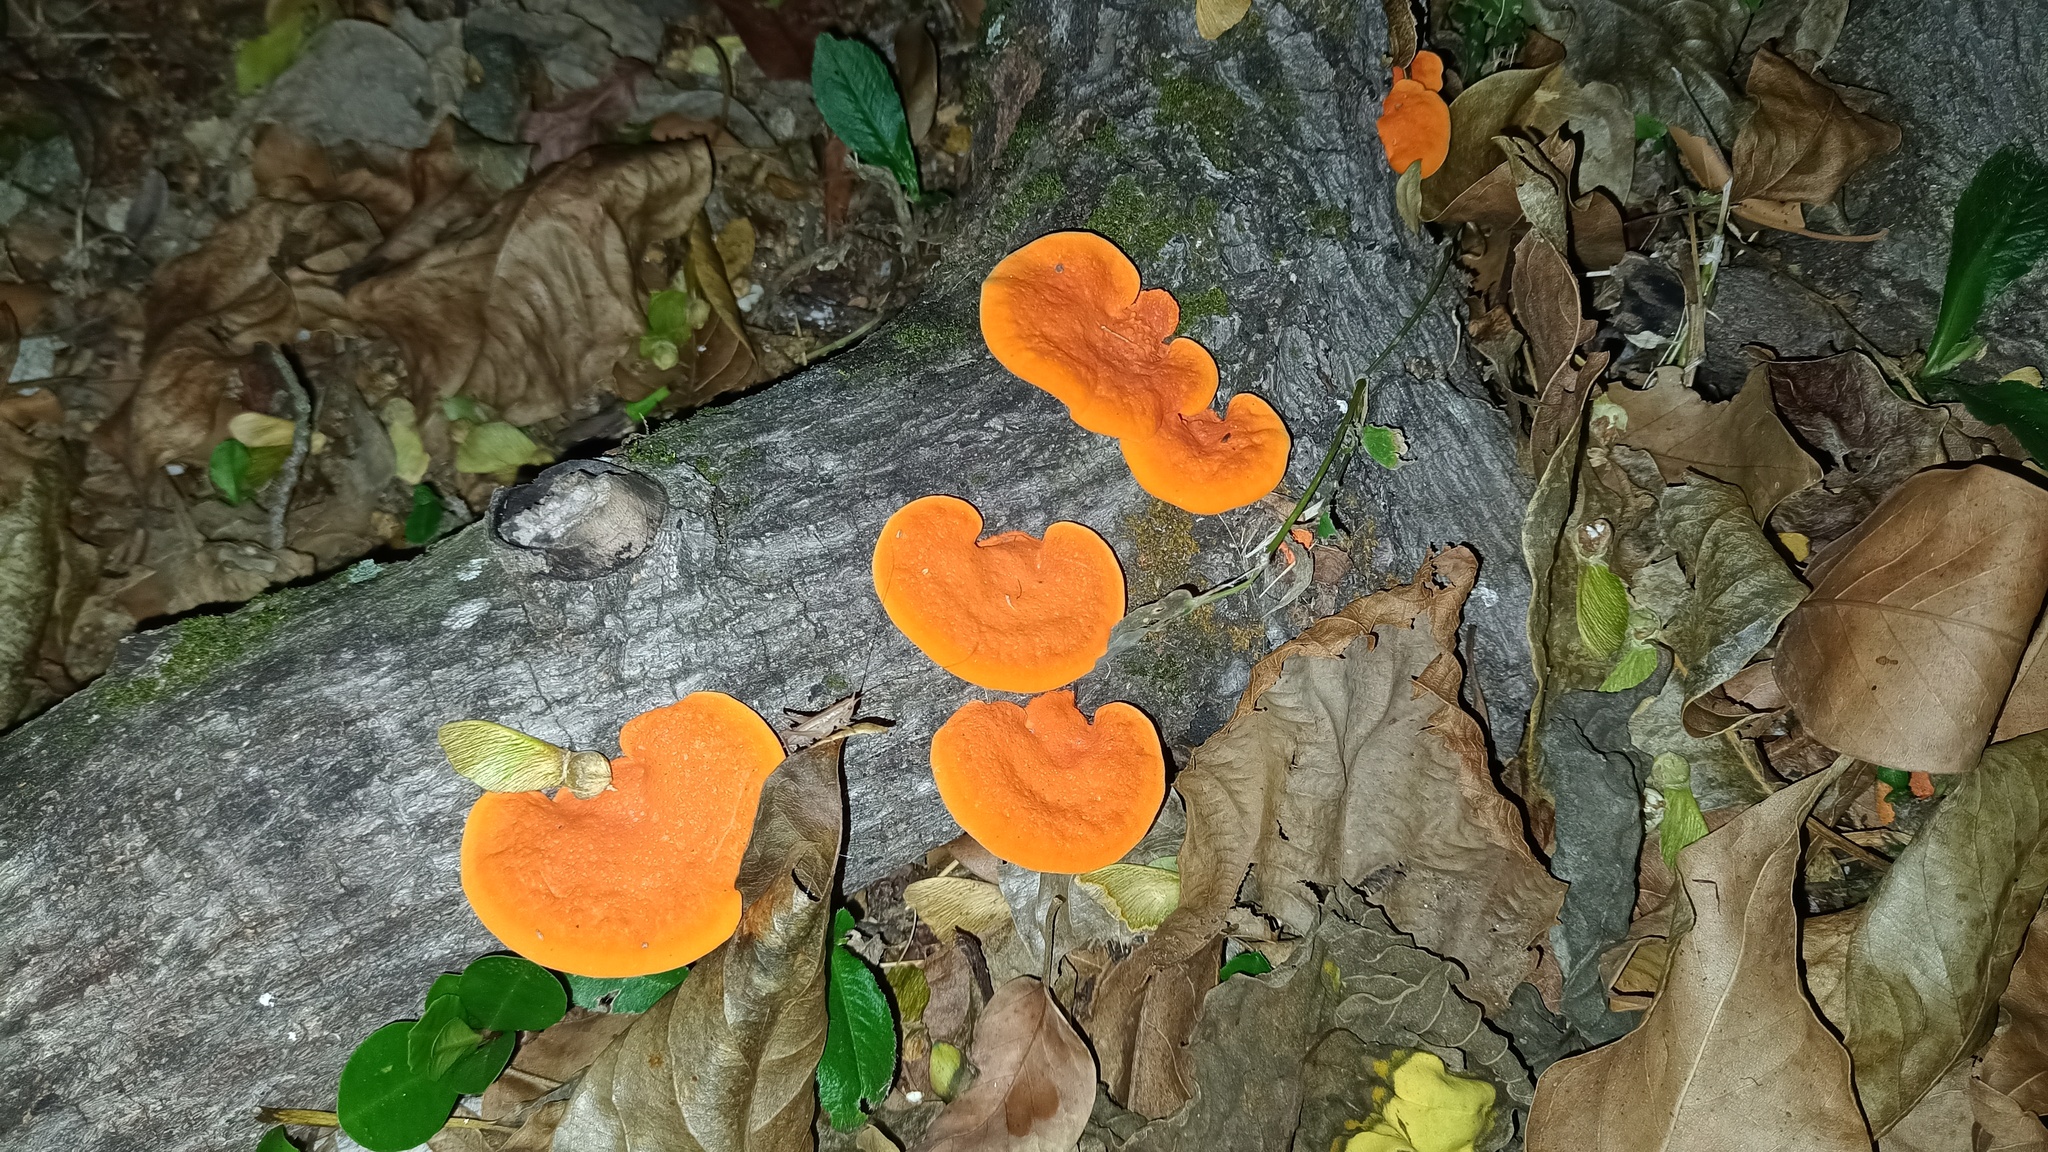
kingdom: Fungi
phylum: Basidiomycota
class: Agaricomycetes
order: Polyporales
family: Polyporaceae
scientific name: Polyporaceae
